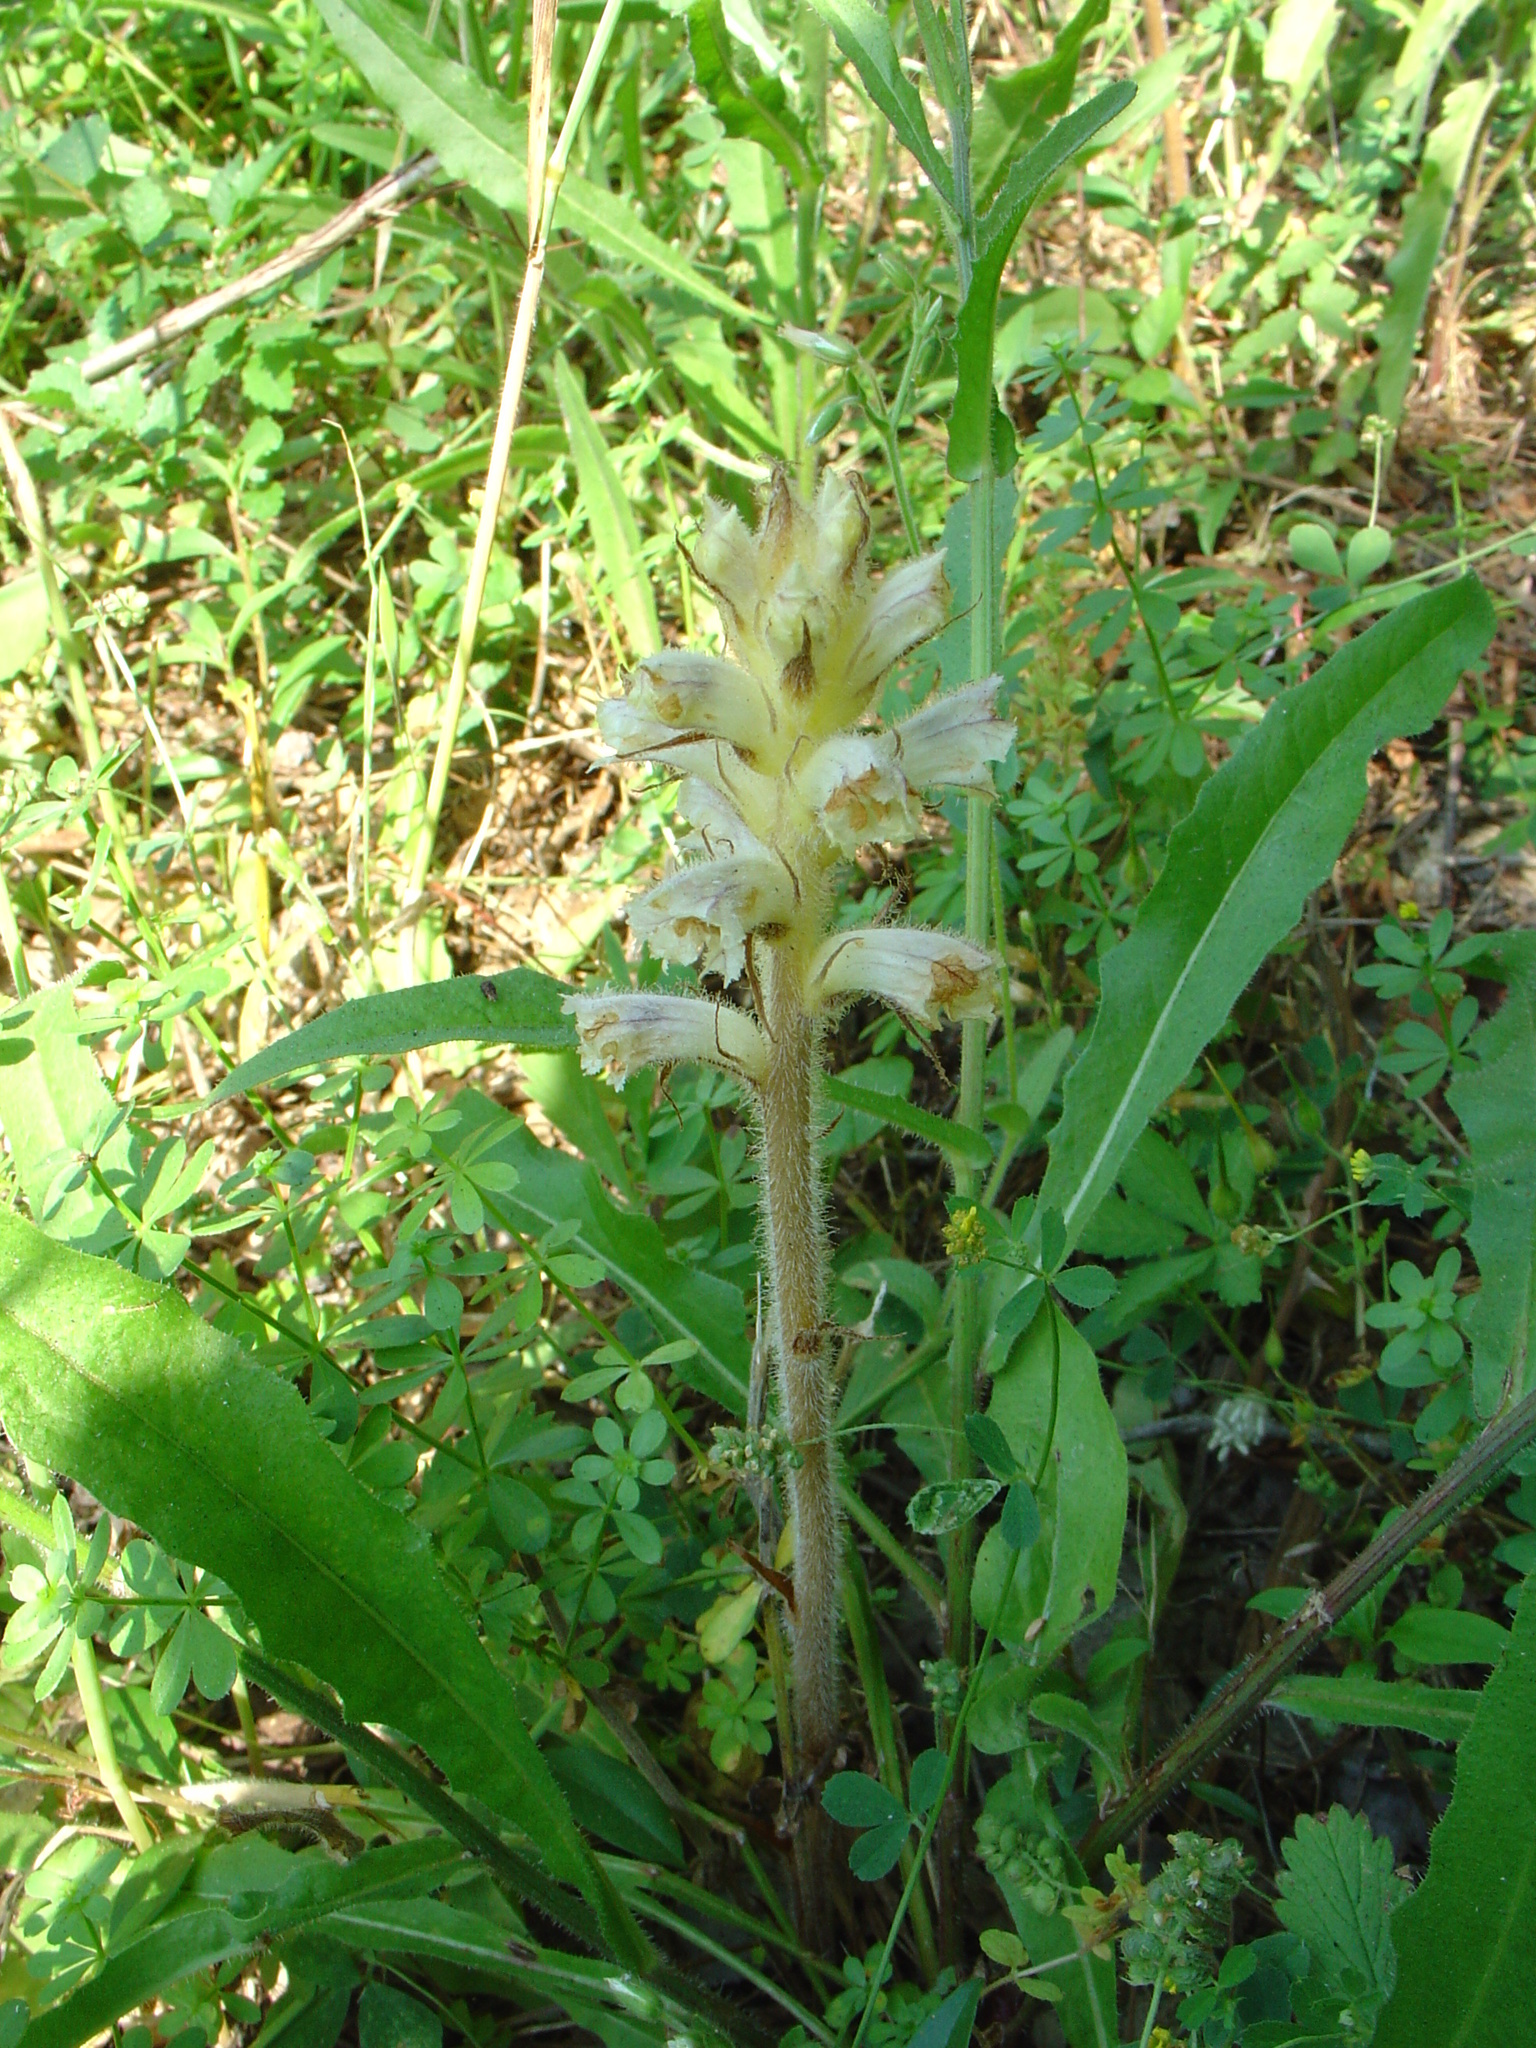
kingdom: Plantae
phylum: Tracheophyta
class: Magnoliopsida
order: Lamiales
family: Orobanchaceae
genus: Orobanche
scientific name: Orobanche picridis
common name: Oxtongue broomrape
